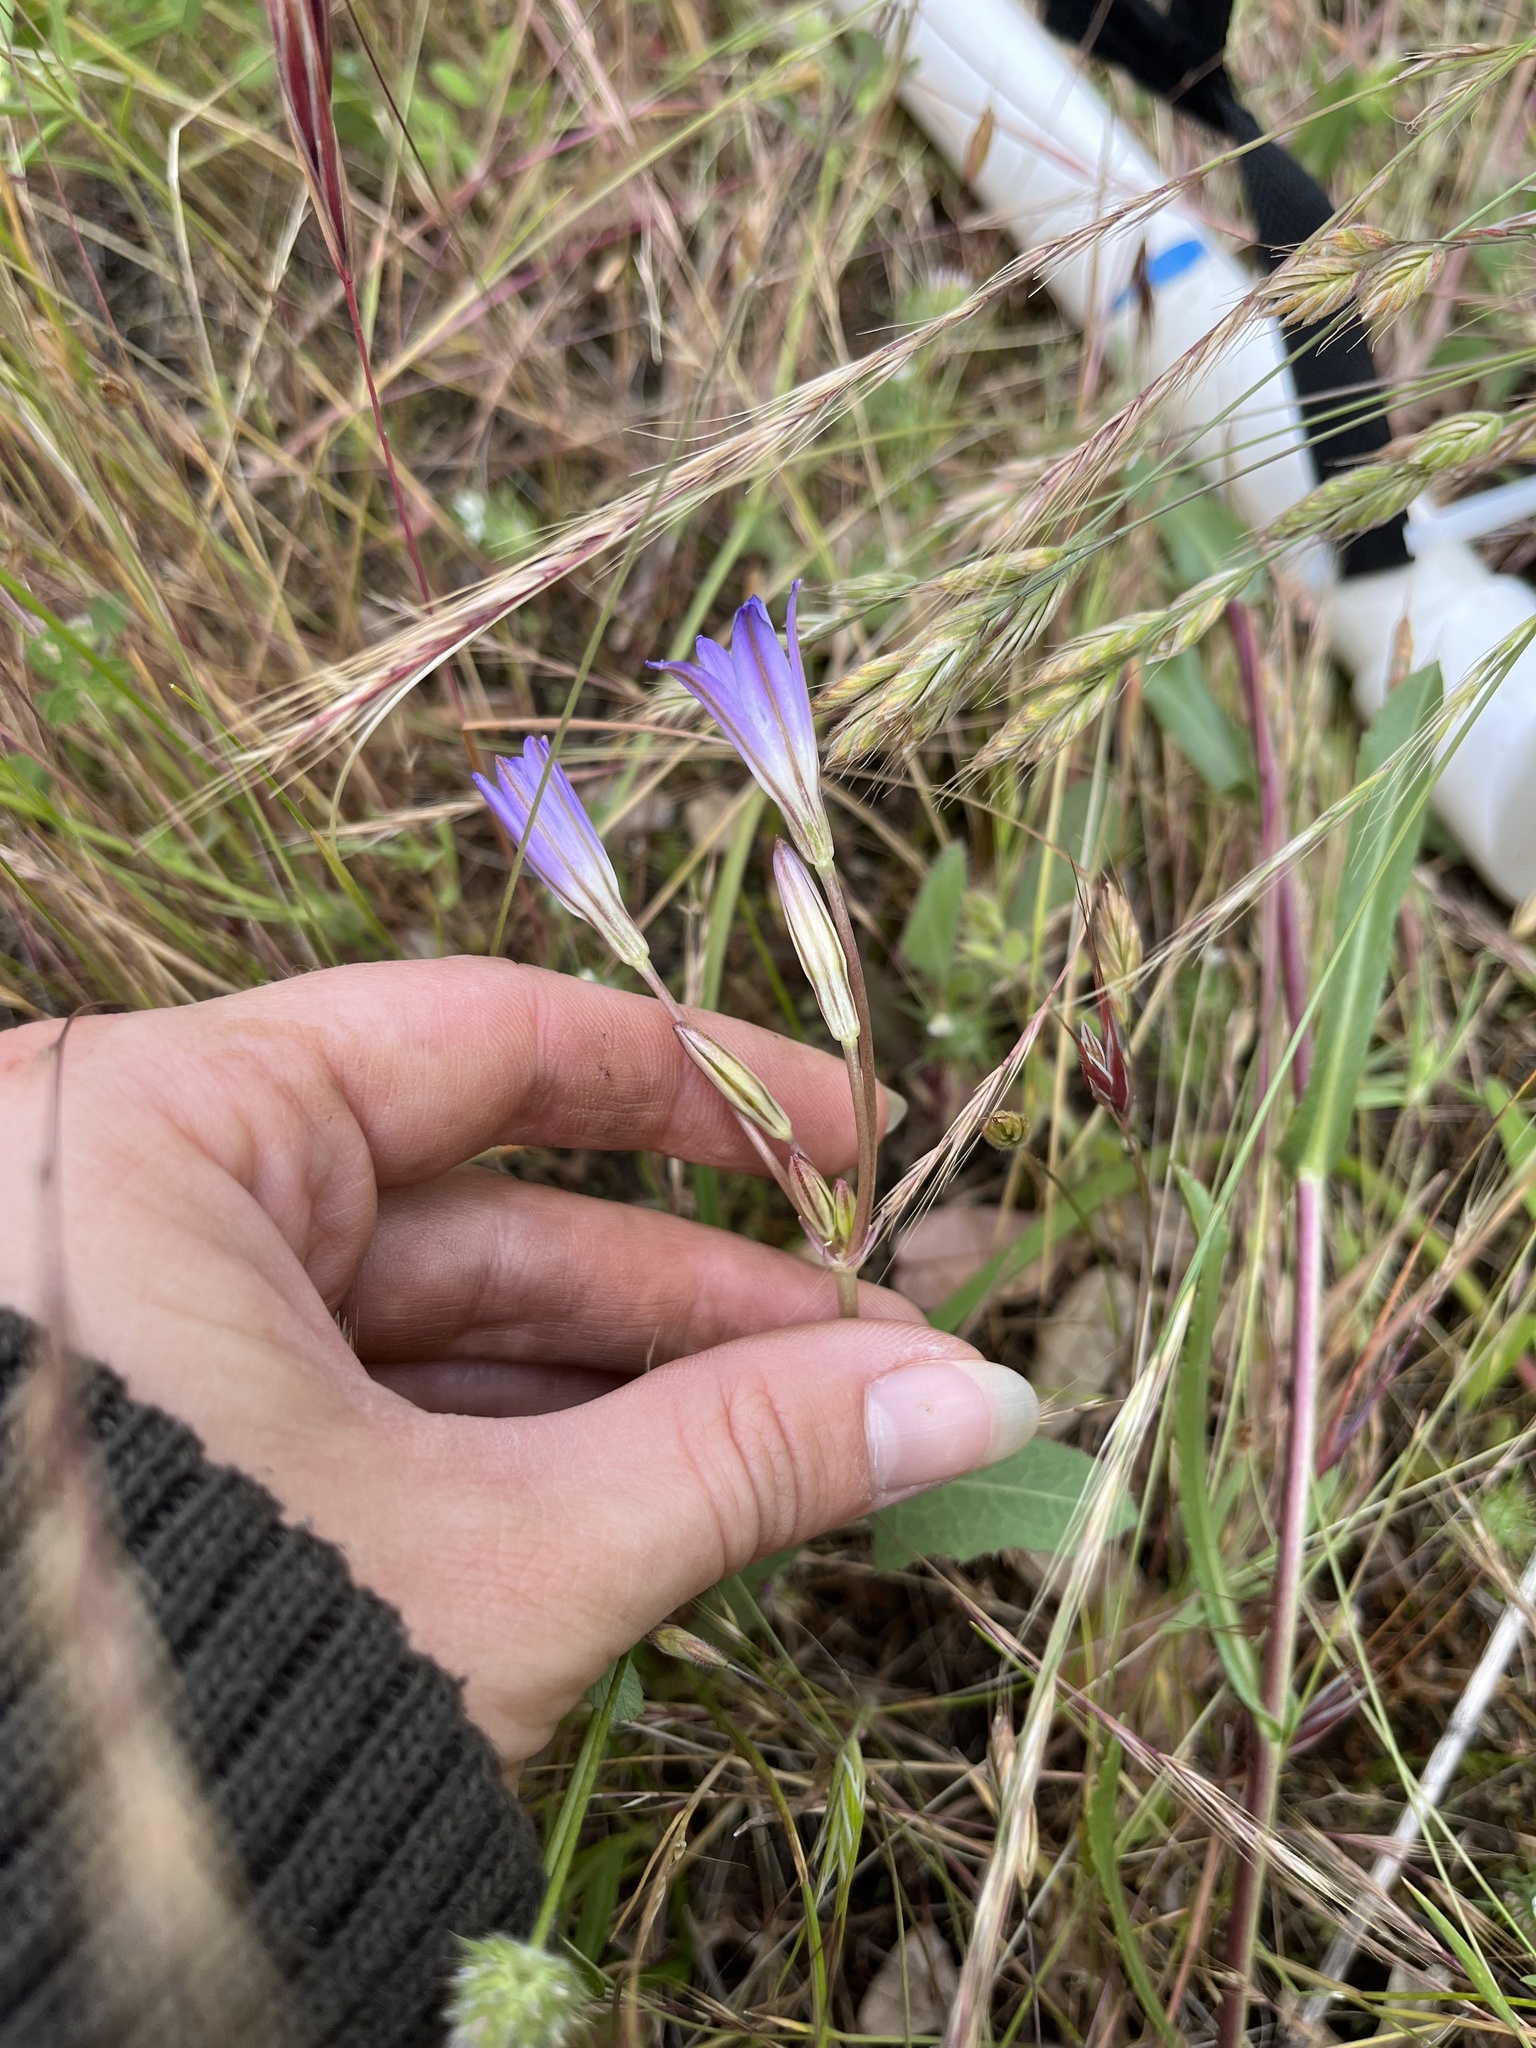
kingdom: Plantae
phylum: Tracheophyta
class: Liliopsida
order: Asparagales
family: Asparagaceae
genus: Brodiaea
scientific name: Brodiaea orcuttii
